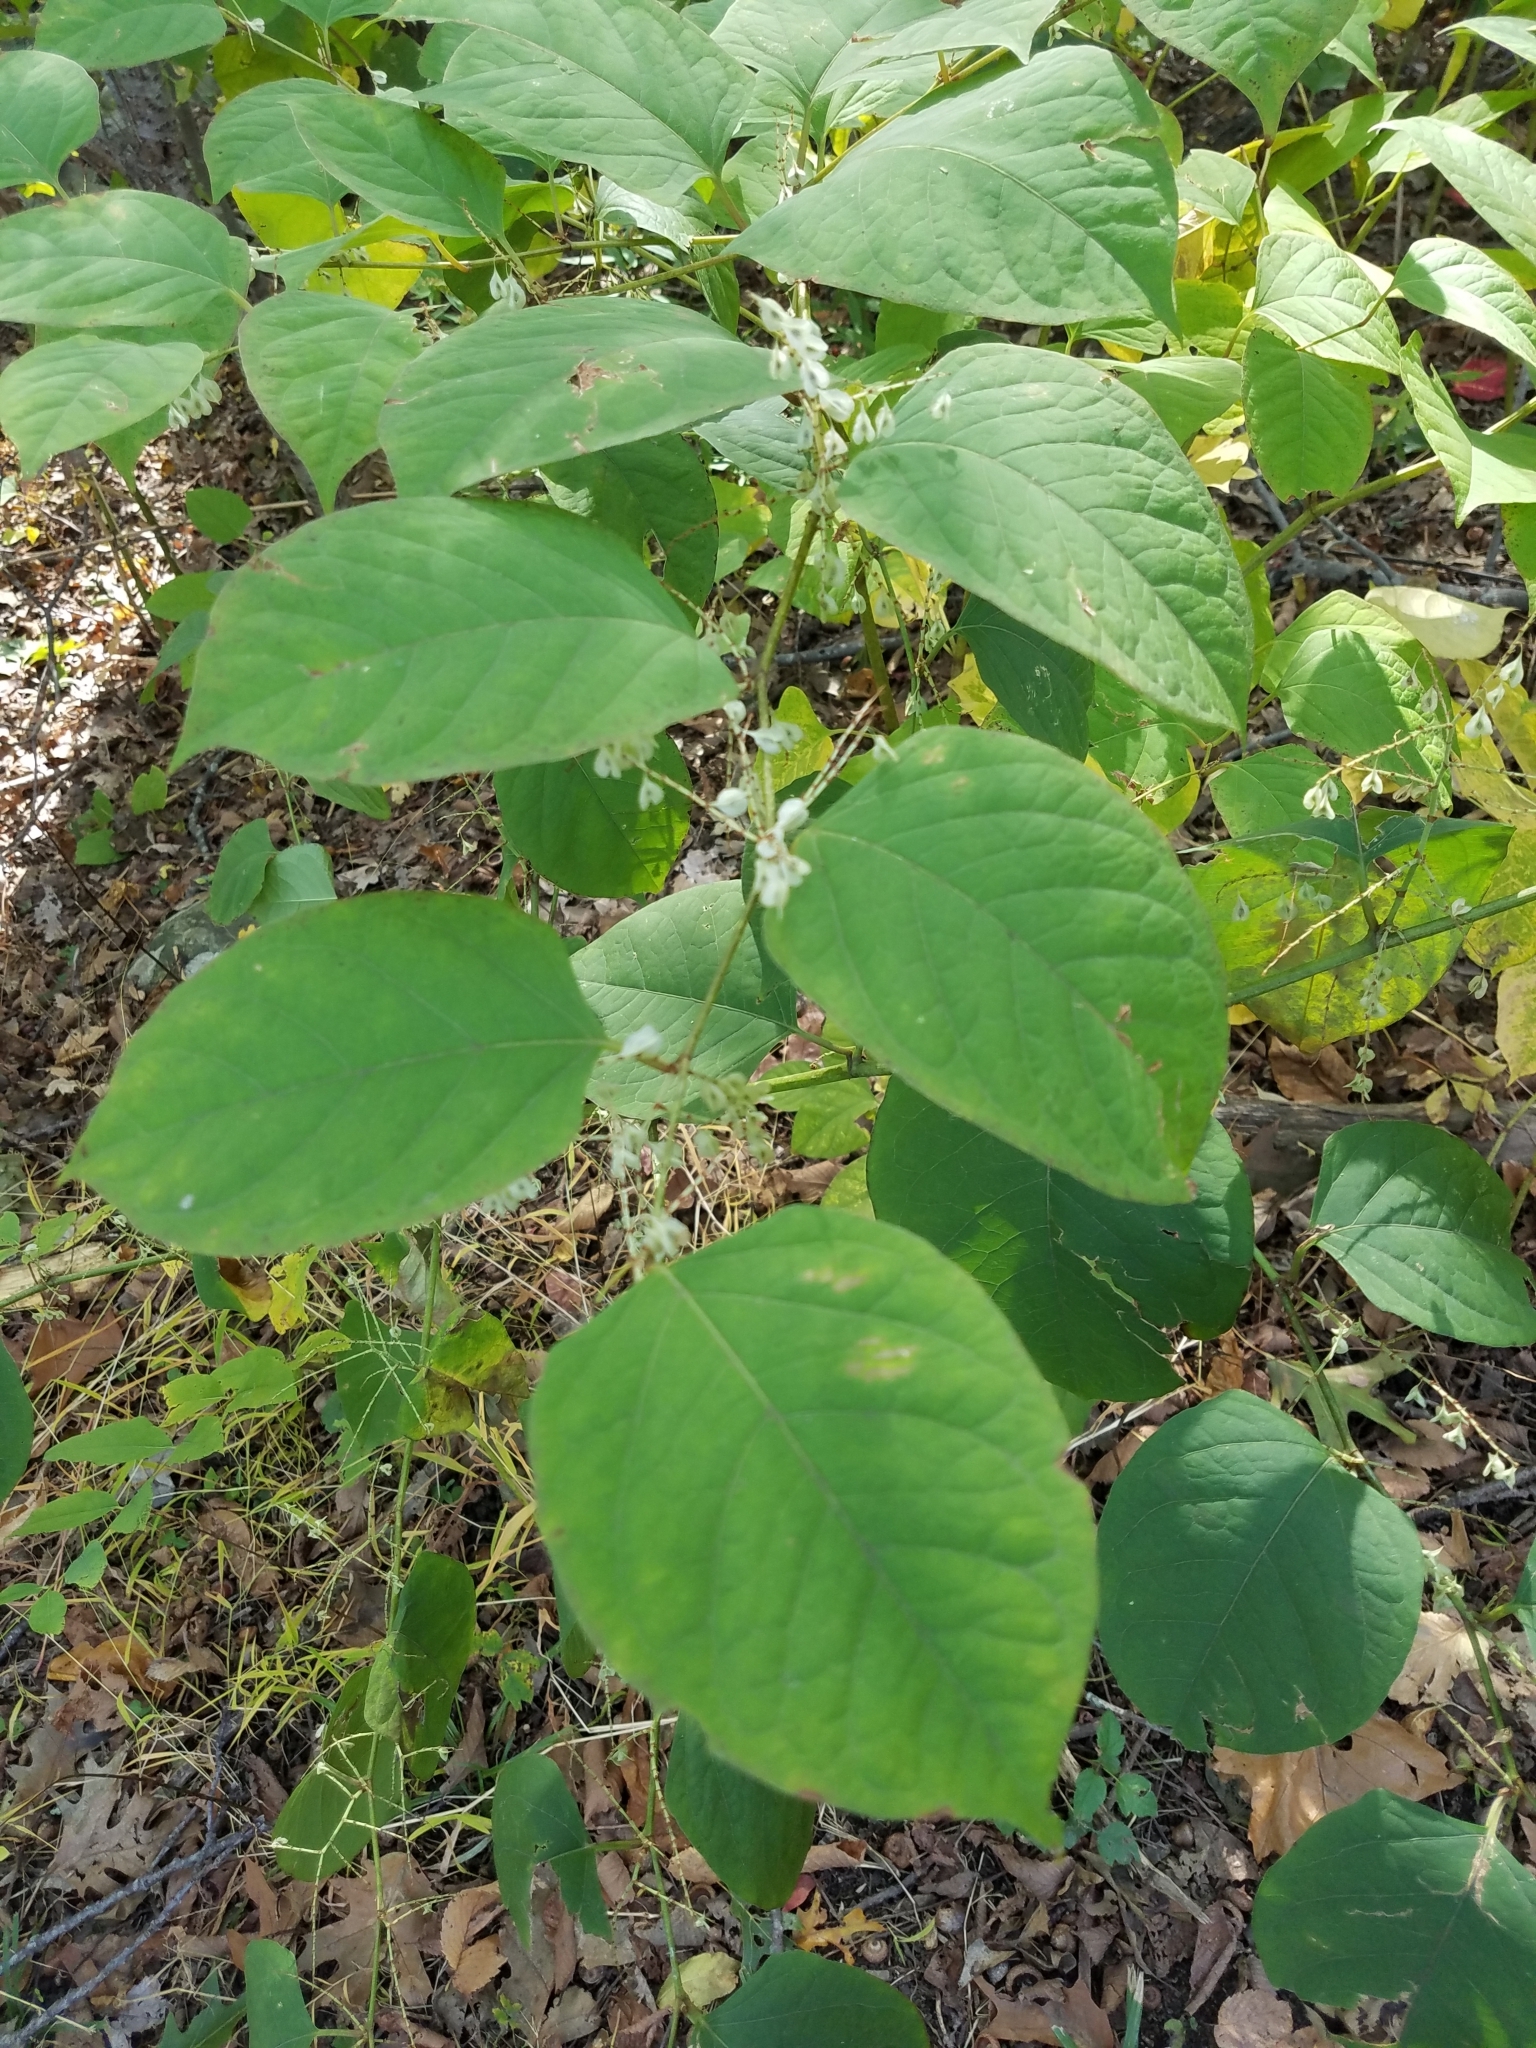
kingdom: Plantae
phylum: Tracheophyta
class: Magnoliopsida
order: Caryophyllales
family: Polygonaceae
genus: Reynoutria
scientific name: Reynoutria japonica
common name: Japanese knotweed
